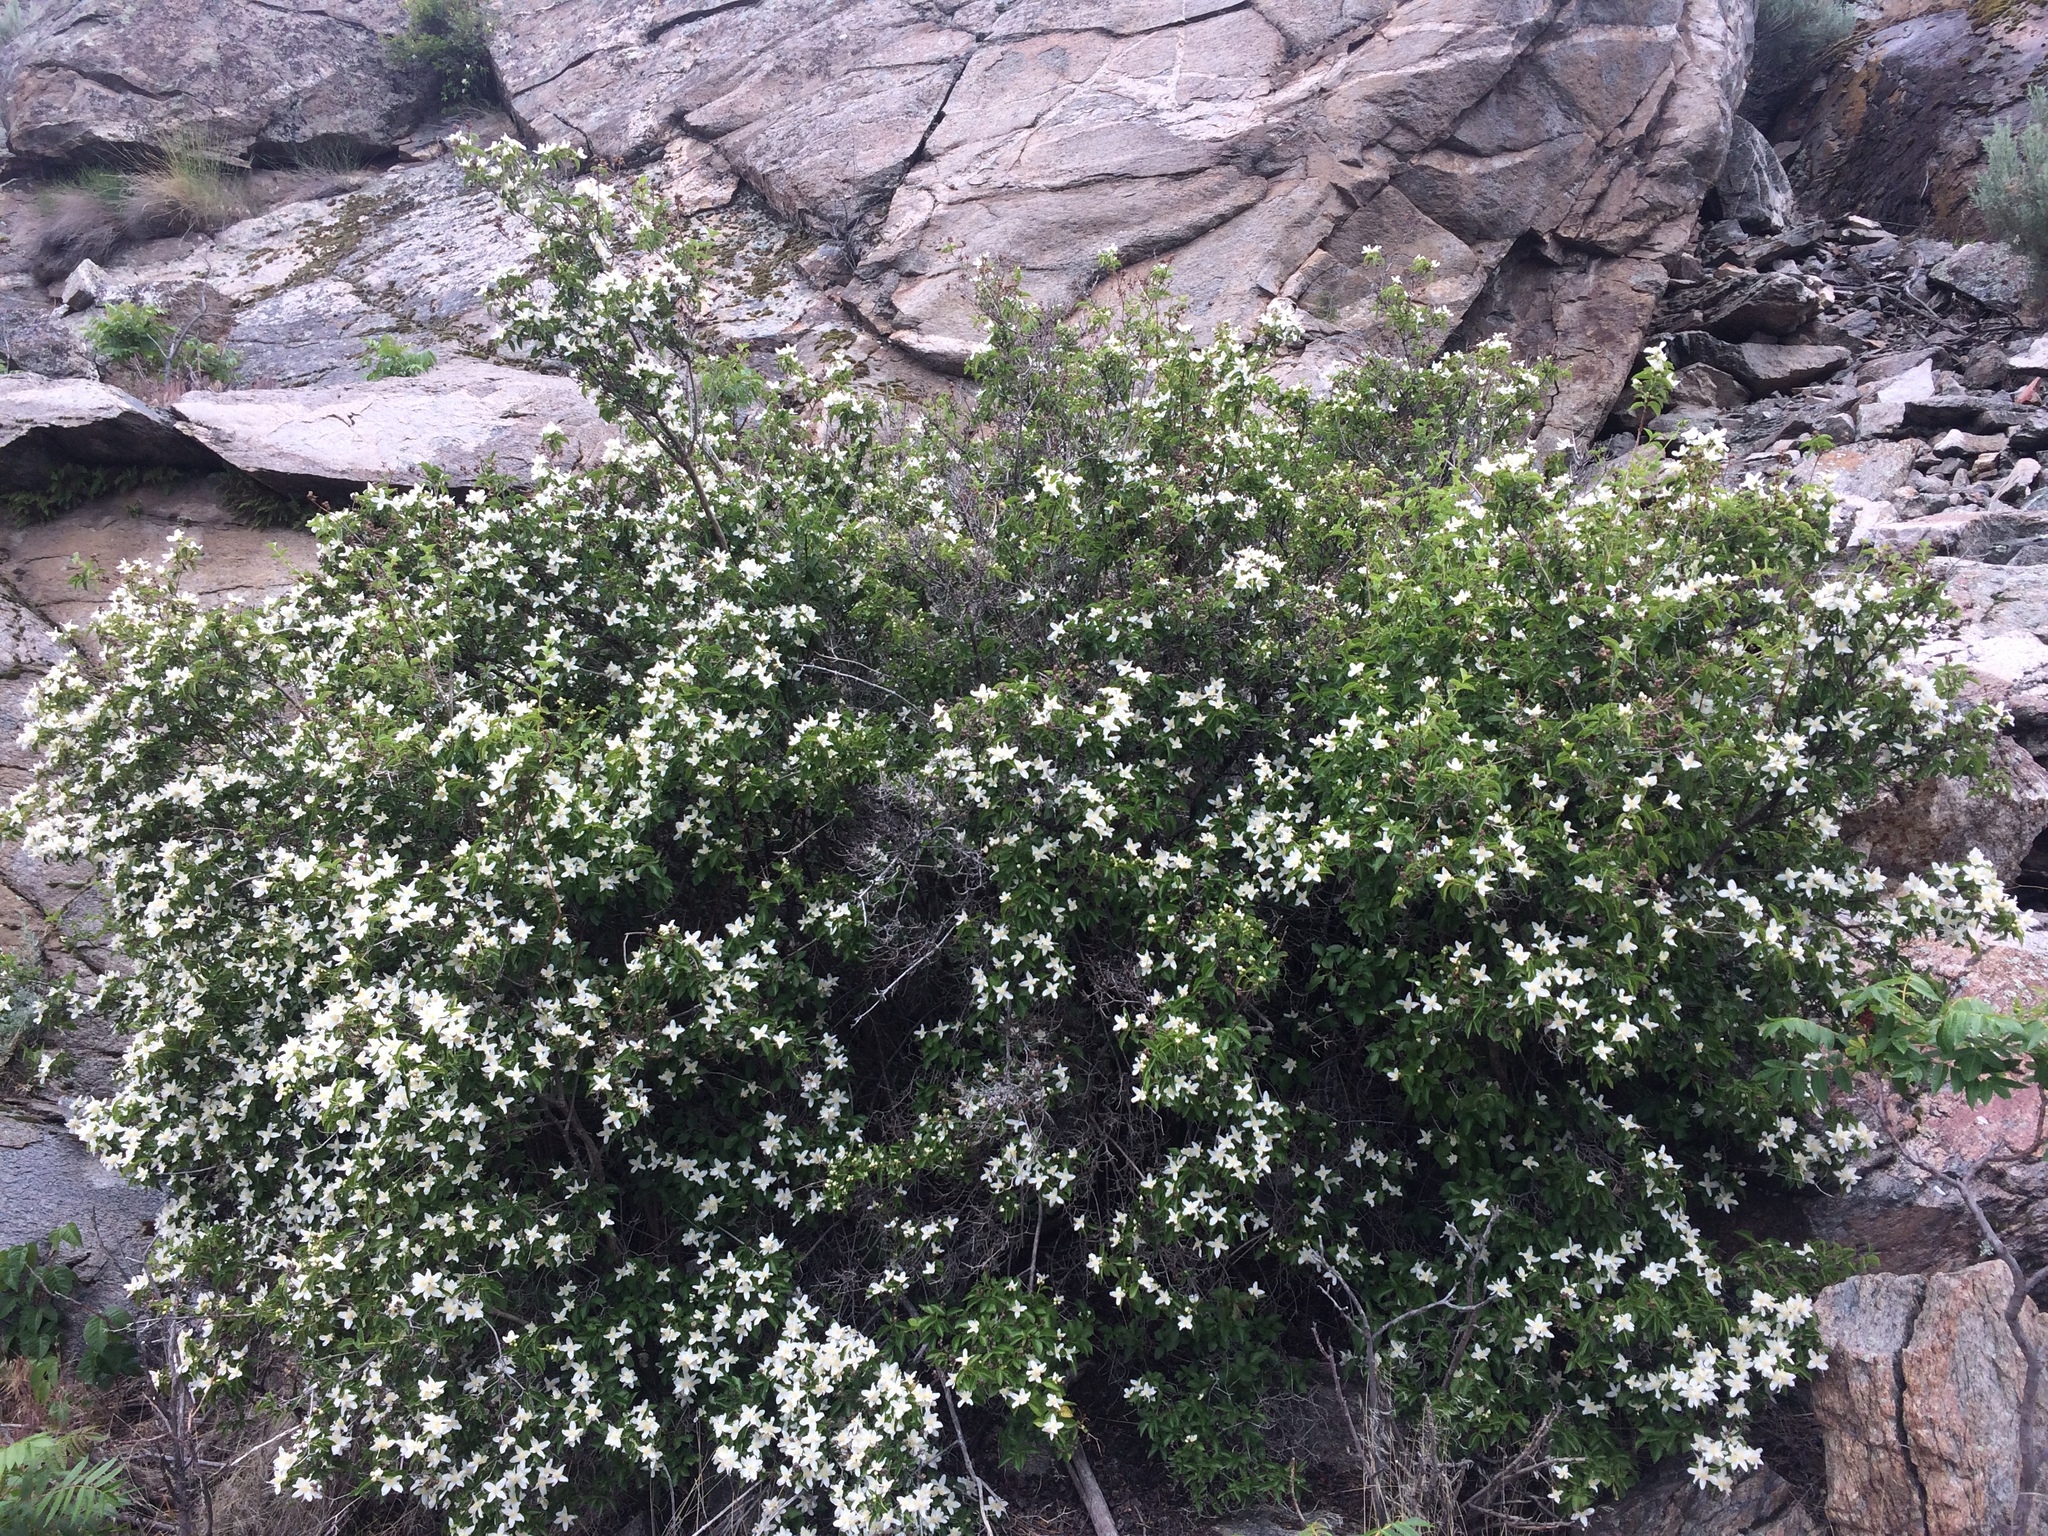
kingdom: Plantae
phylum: Tracheophyta
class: Magnoliopsida
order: Cornales
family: Hydrangeaceae
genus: Philadelphus
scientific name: Philadelphus lewisii
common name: Lewis's mock orange
